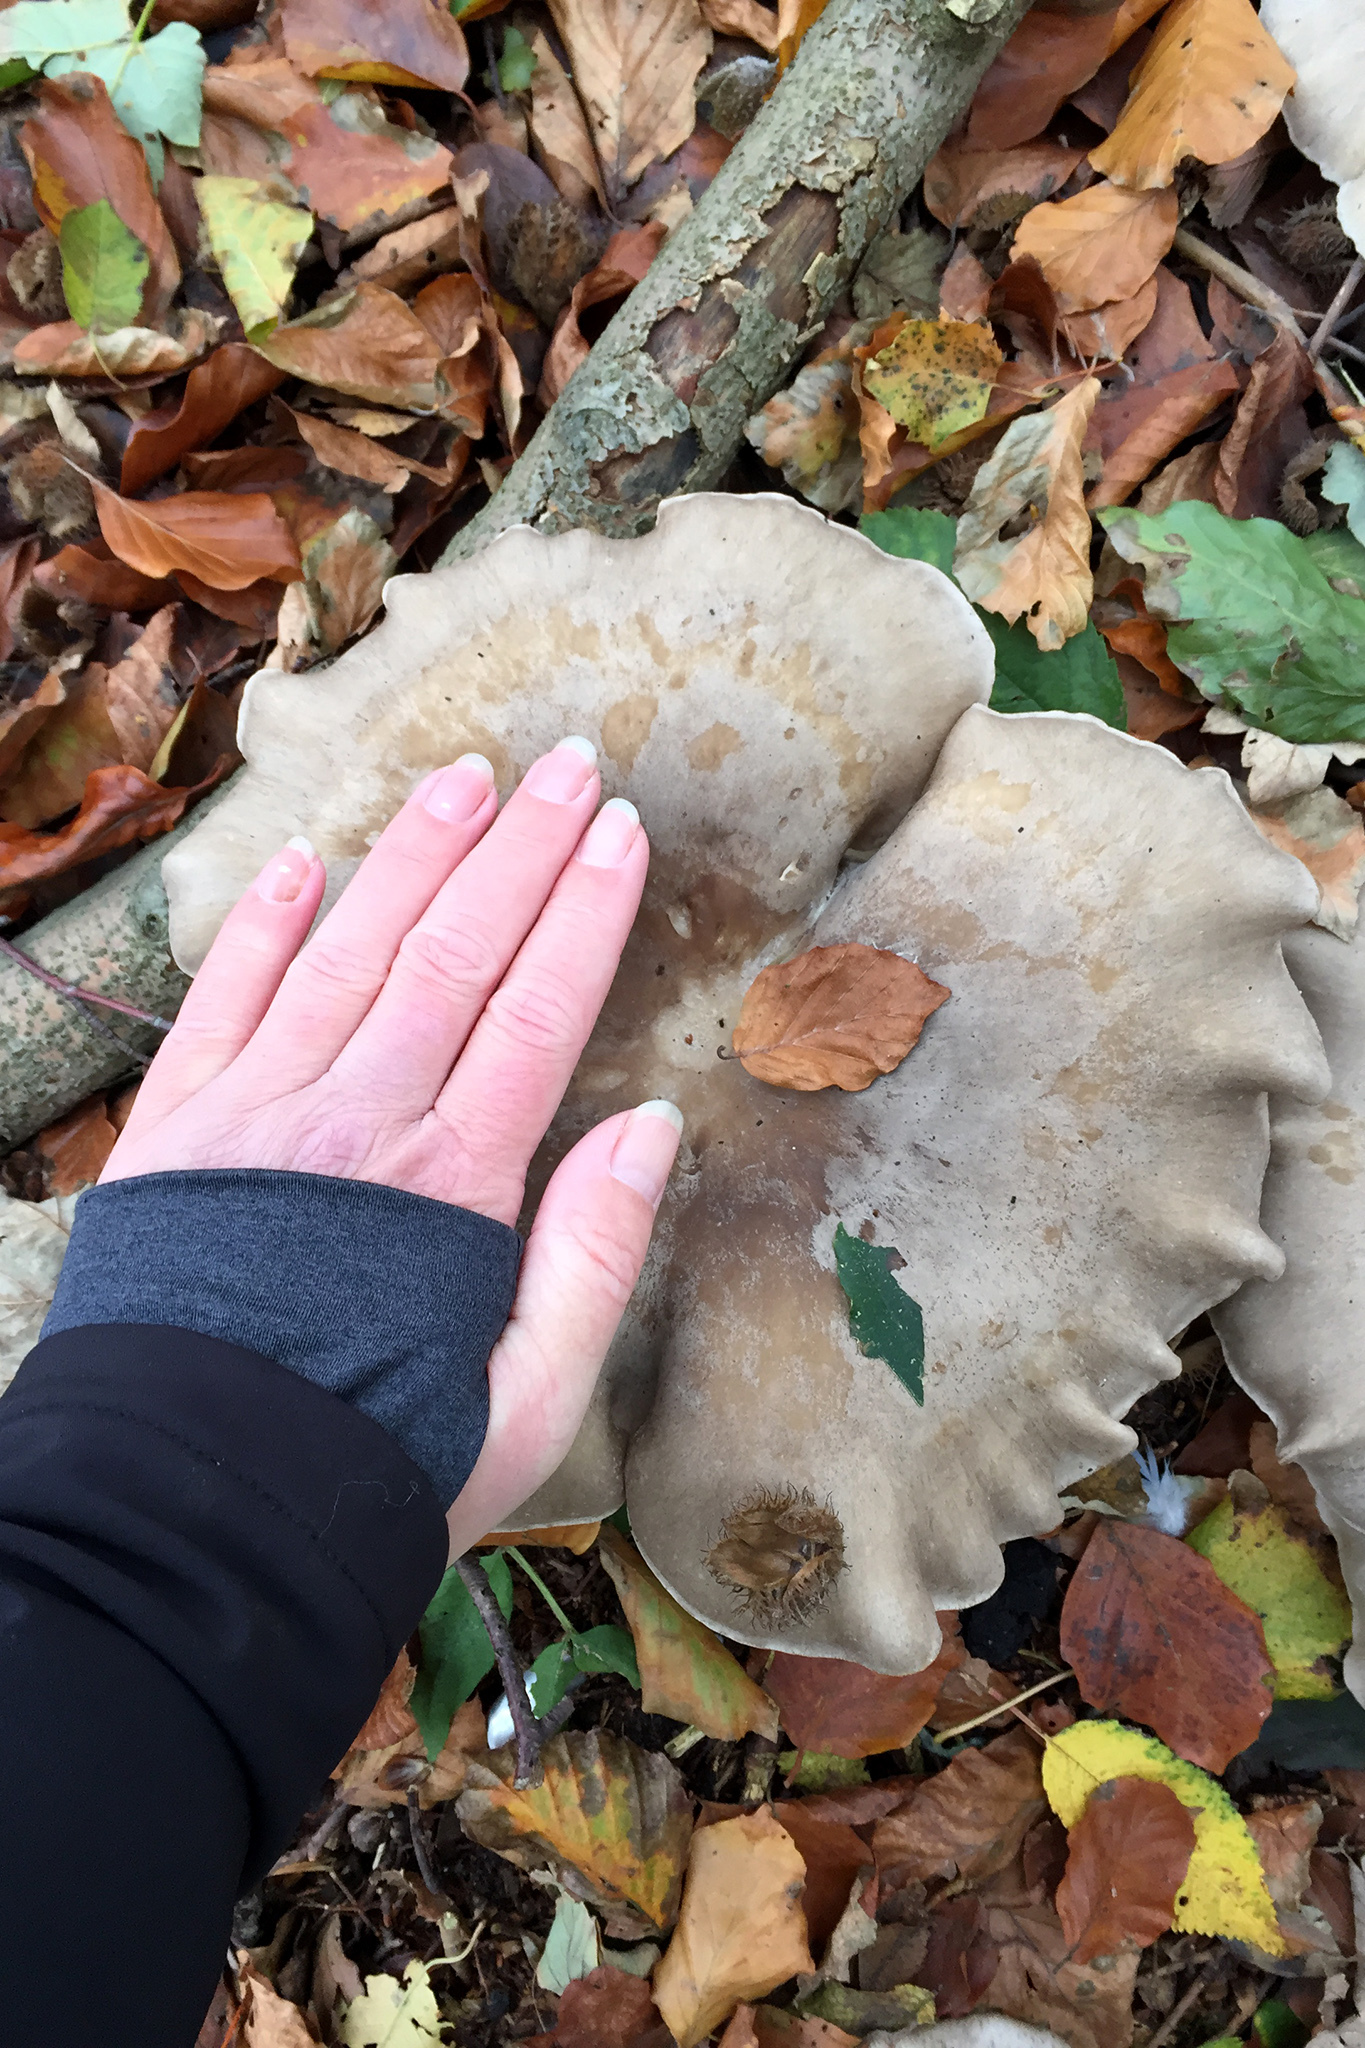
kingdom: Fungi
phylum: Basidiomycota
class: Agaricomycetes
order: Agaricales
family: Tricholomataceae
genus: Clitocybe
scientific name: Clitocybe nebularis
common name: Clouded agaric
